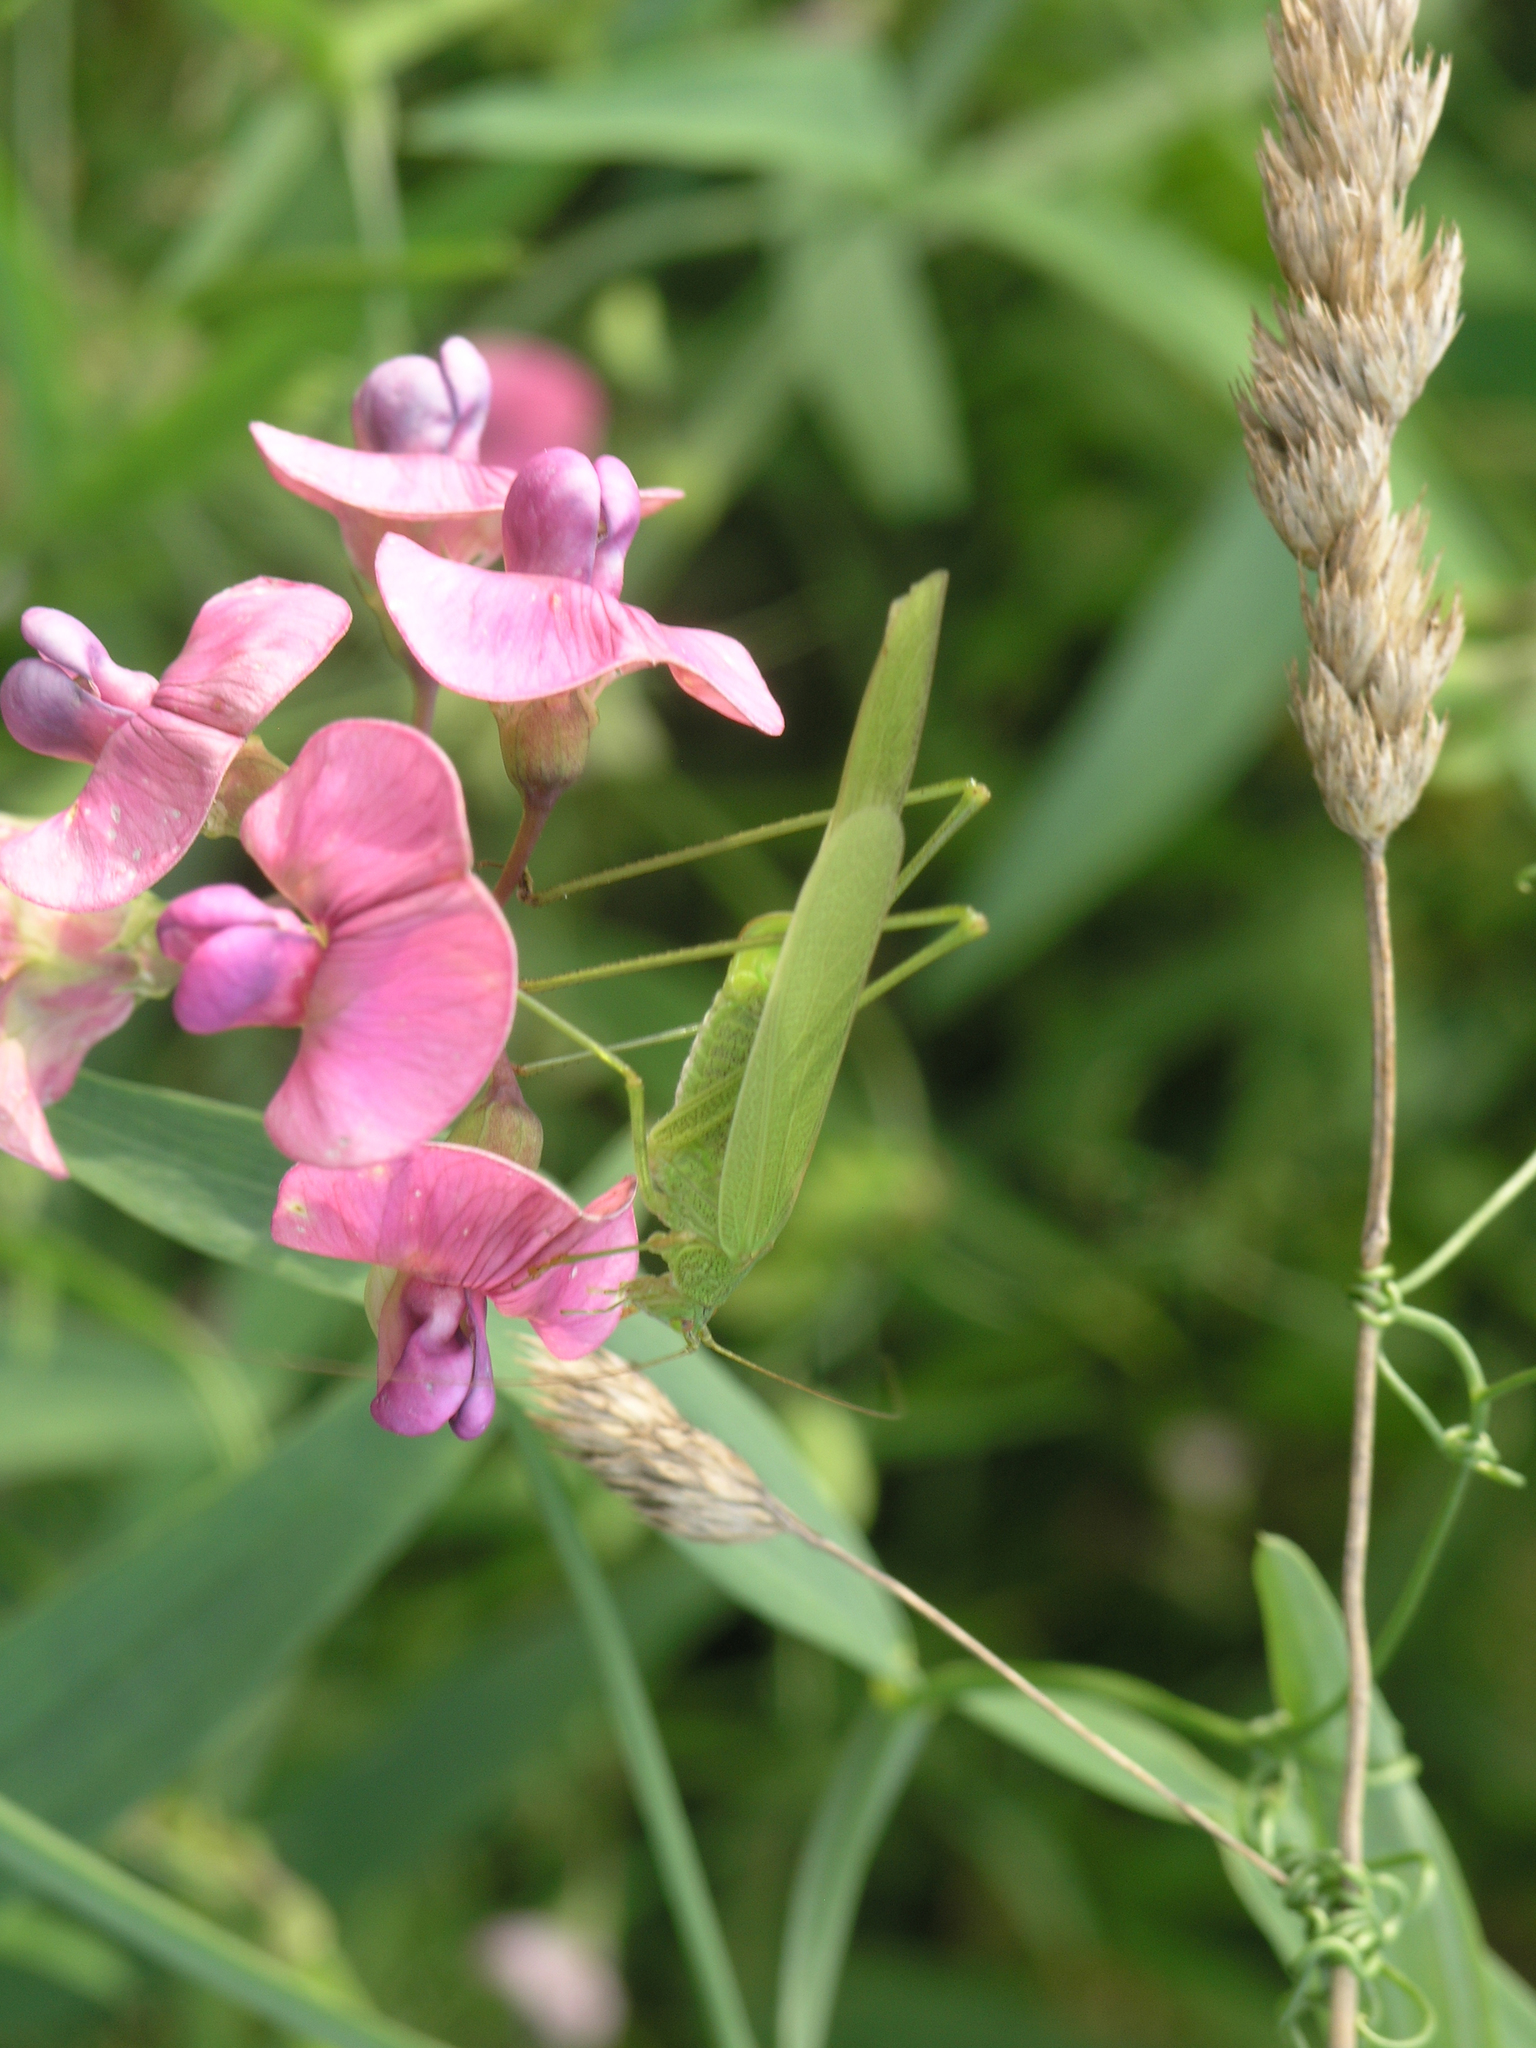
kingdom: Plantae
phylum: Tracheophyta
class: Magnoliopsida
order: Fabales
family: Fabaceae
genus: Lathyrus
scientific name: Lathyrus sylvestris
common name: Flat pea
